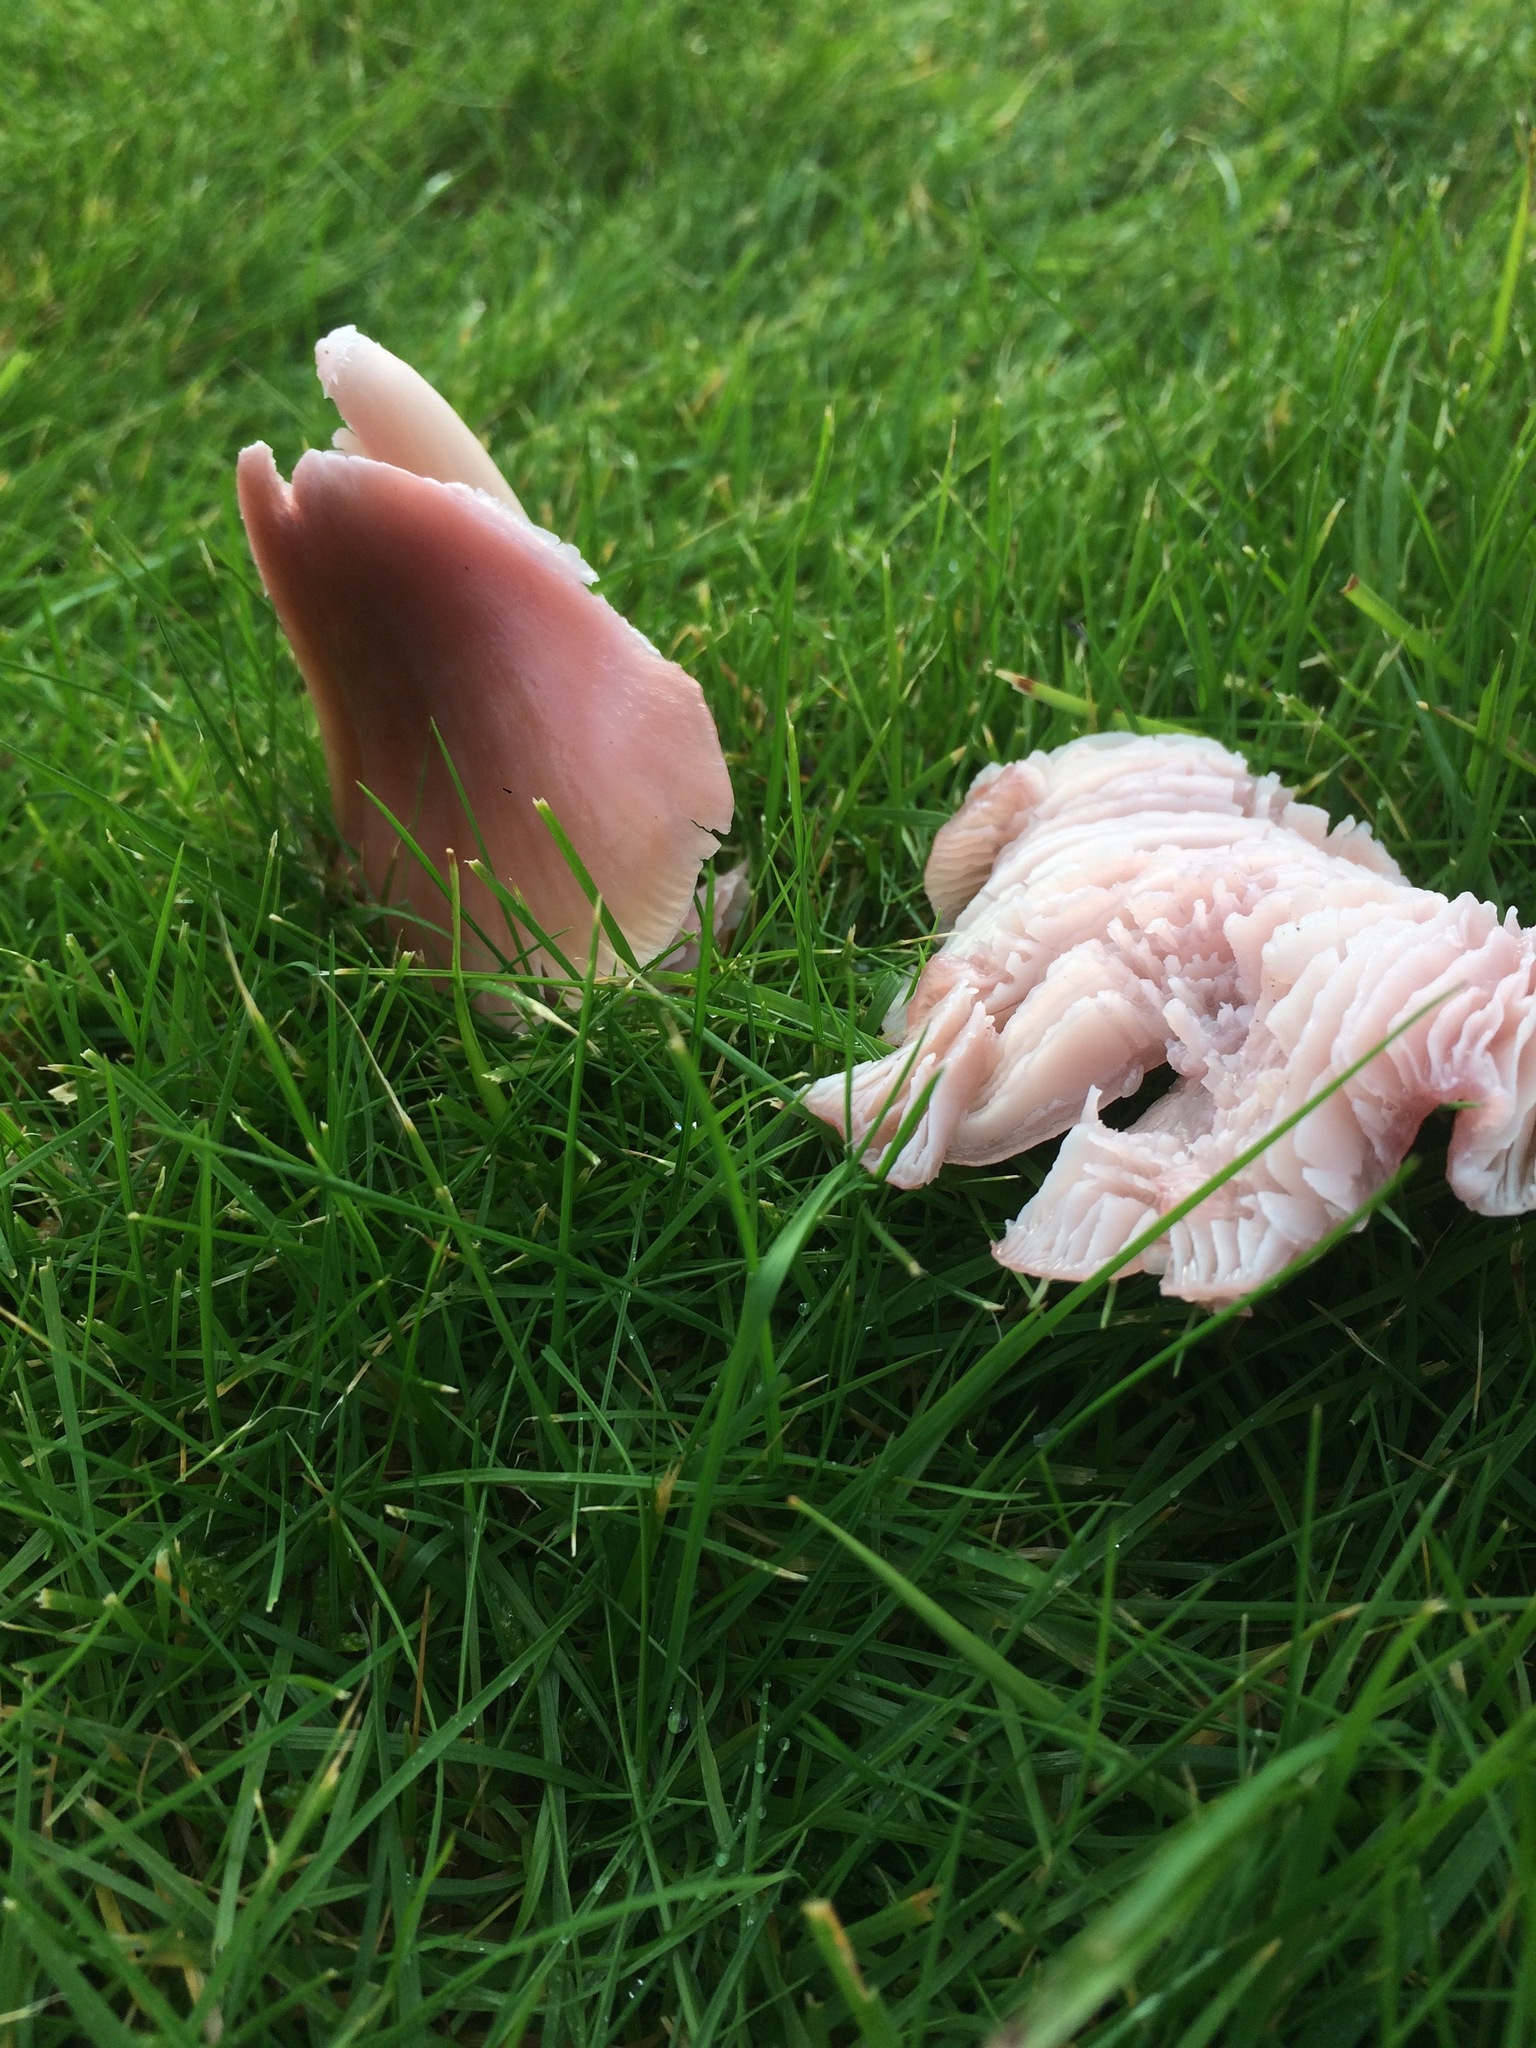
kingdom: Fungi
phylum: Basidiomycota
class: Agaricomycetes
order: Agaricales
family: Hygrophoraceae
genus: Porpolomopsis
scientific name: Porpolomopsis calyptriformis
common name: Pink waxcap
